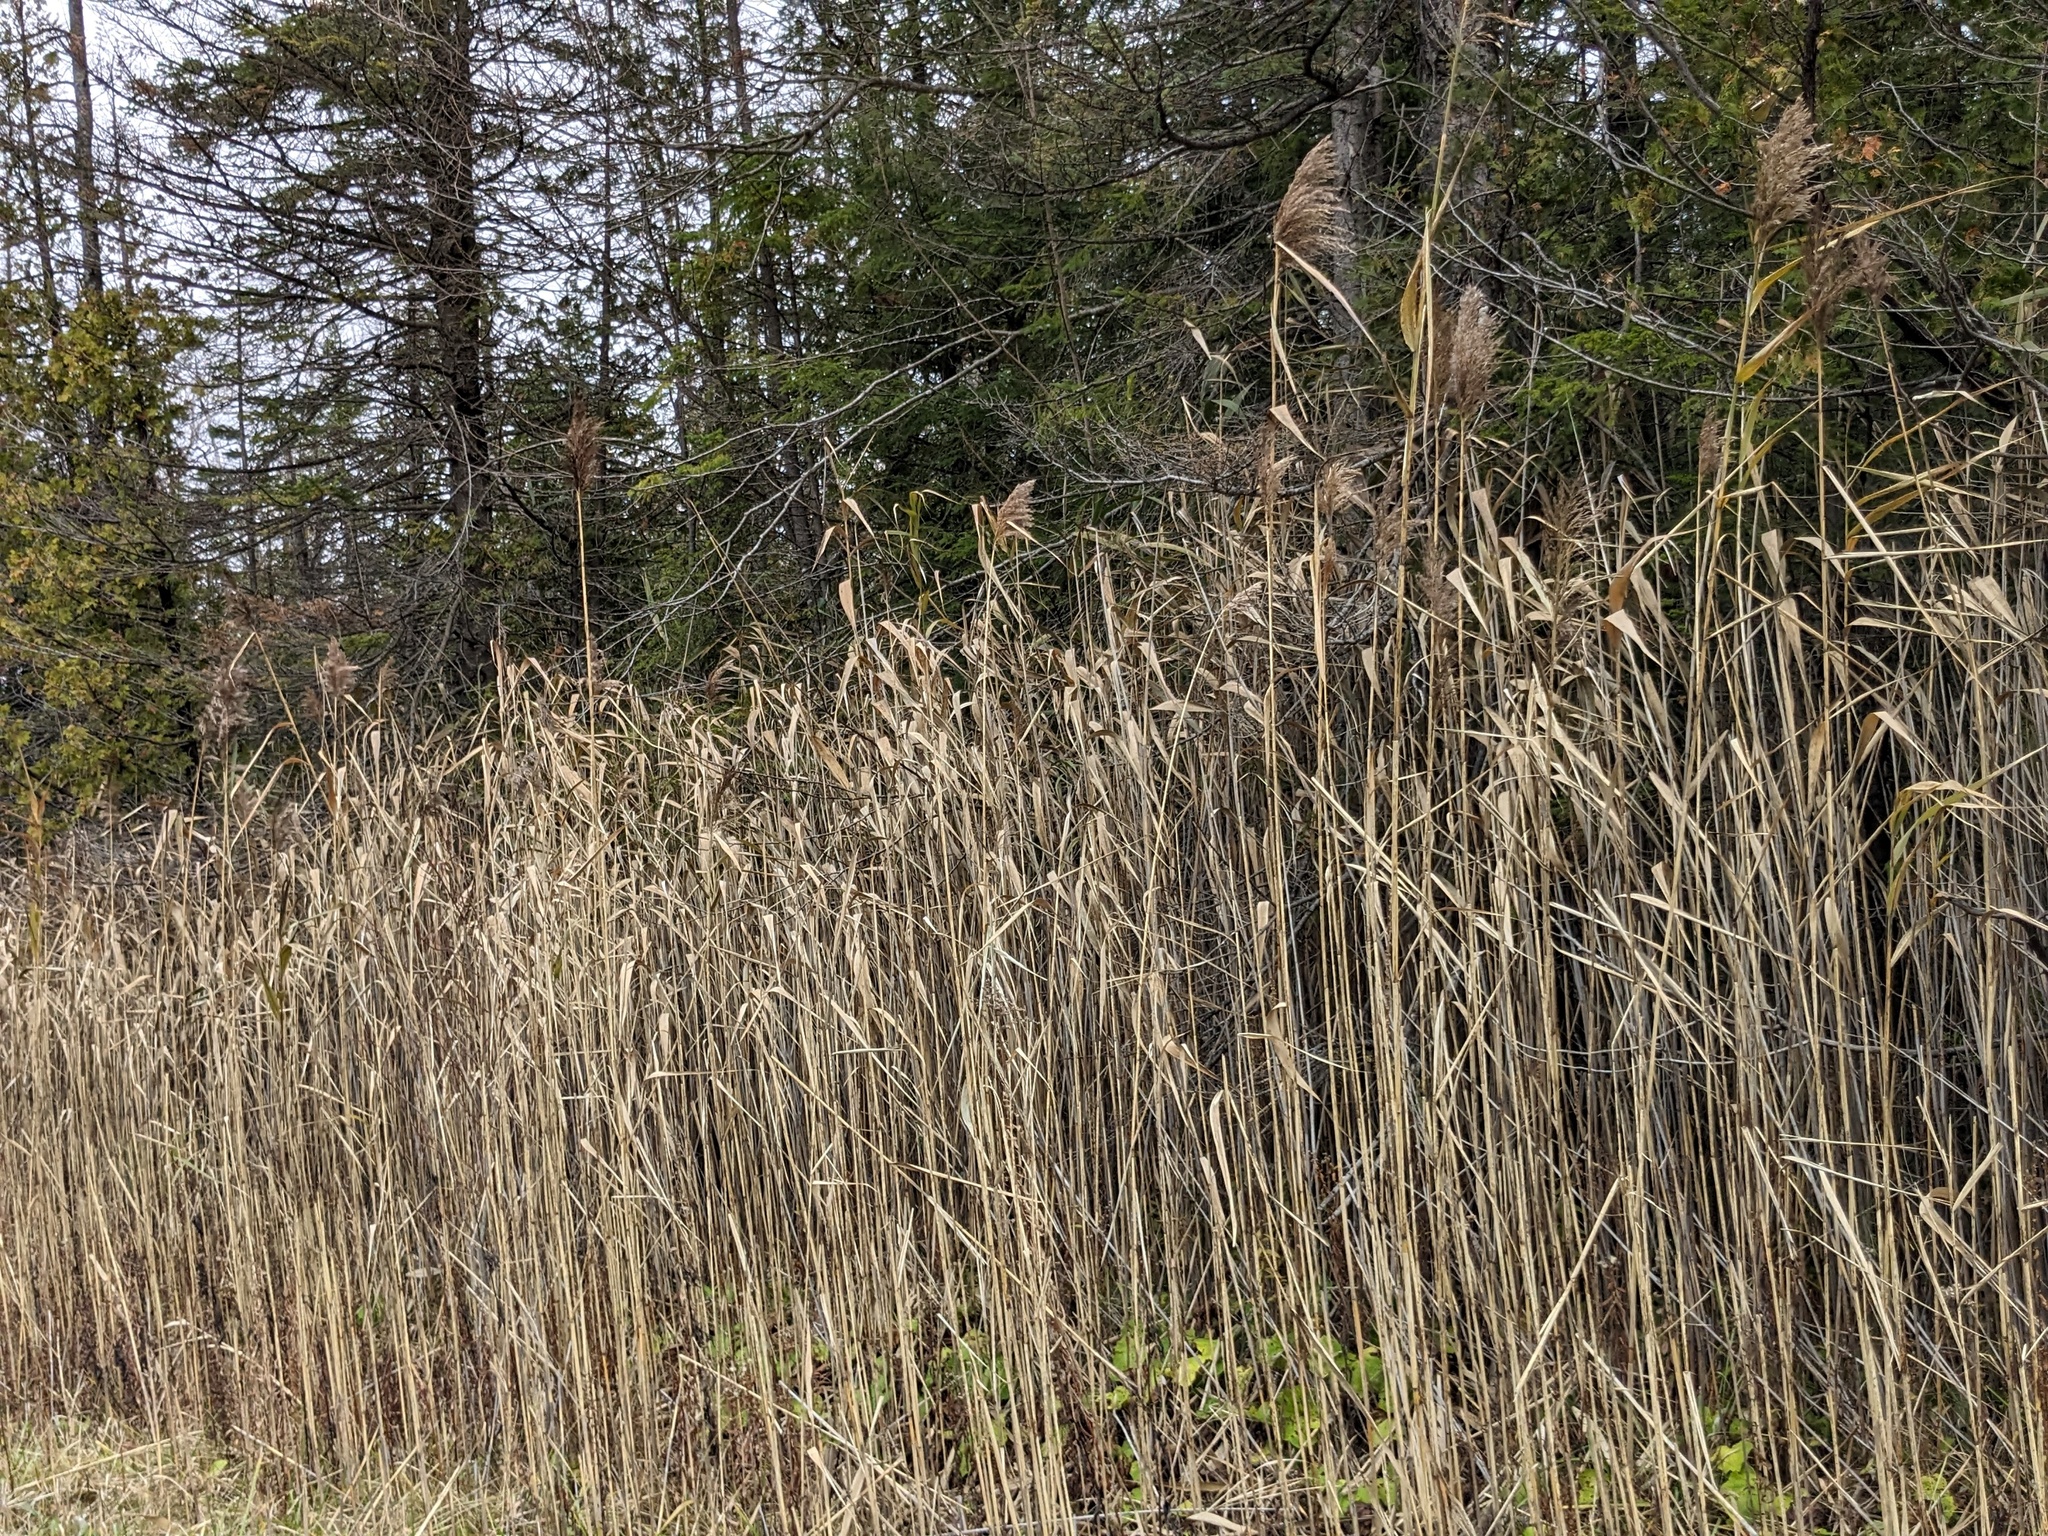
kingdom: Plantae
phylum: Tracheophyta
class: Liliopsida
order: Poales
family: Poaceae
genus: Phragmites
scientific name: Phragmites australis
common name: Common reed
